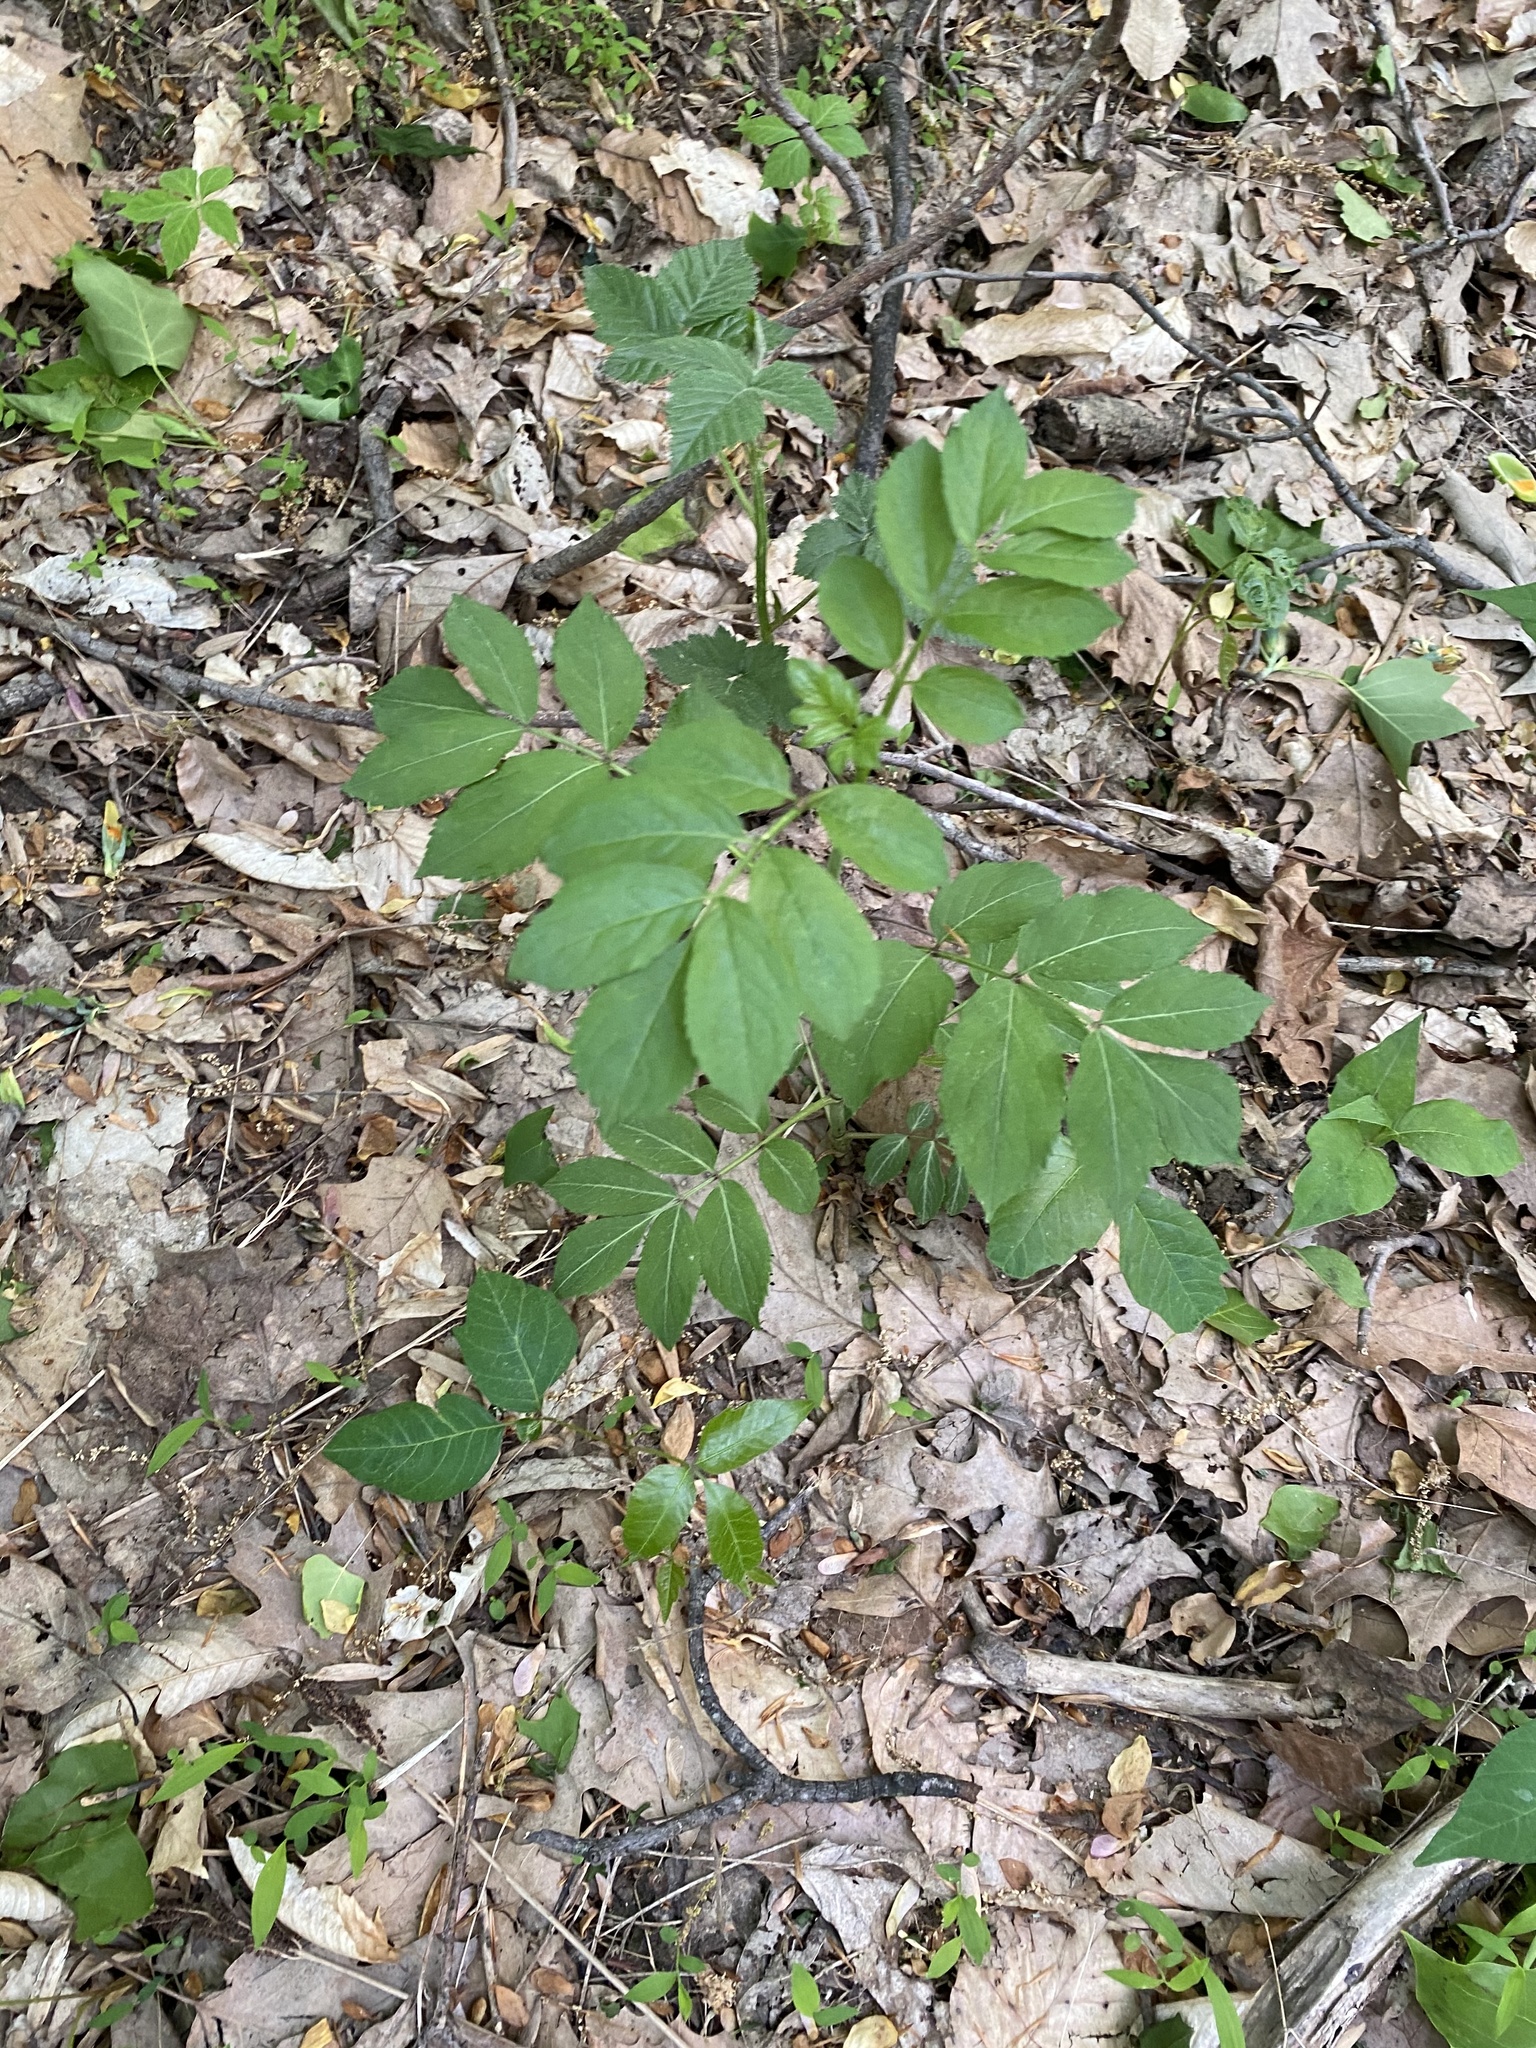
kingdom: Plantae
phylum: Tracheophyta
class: Magnoliopsida
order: Dipsacales
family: Viburnaceae
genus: Sambucus
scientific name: Sambucus canadensis
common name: American elder
